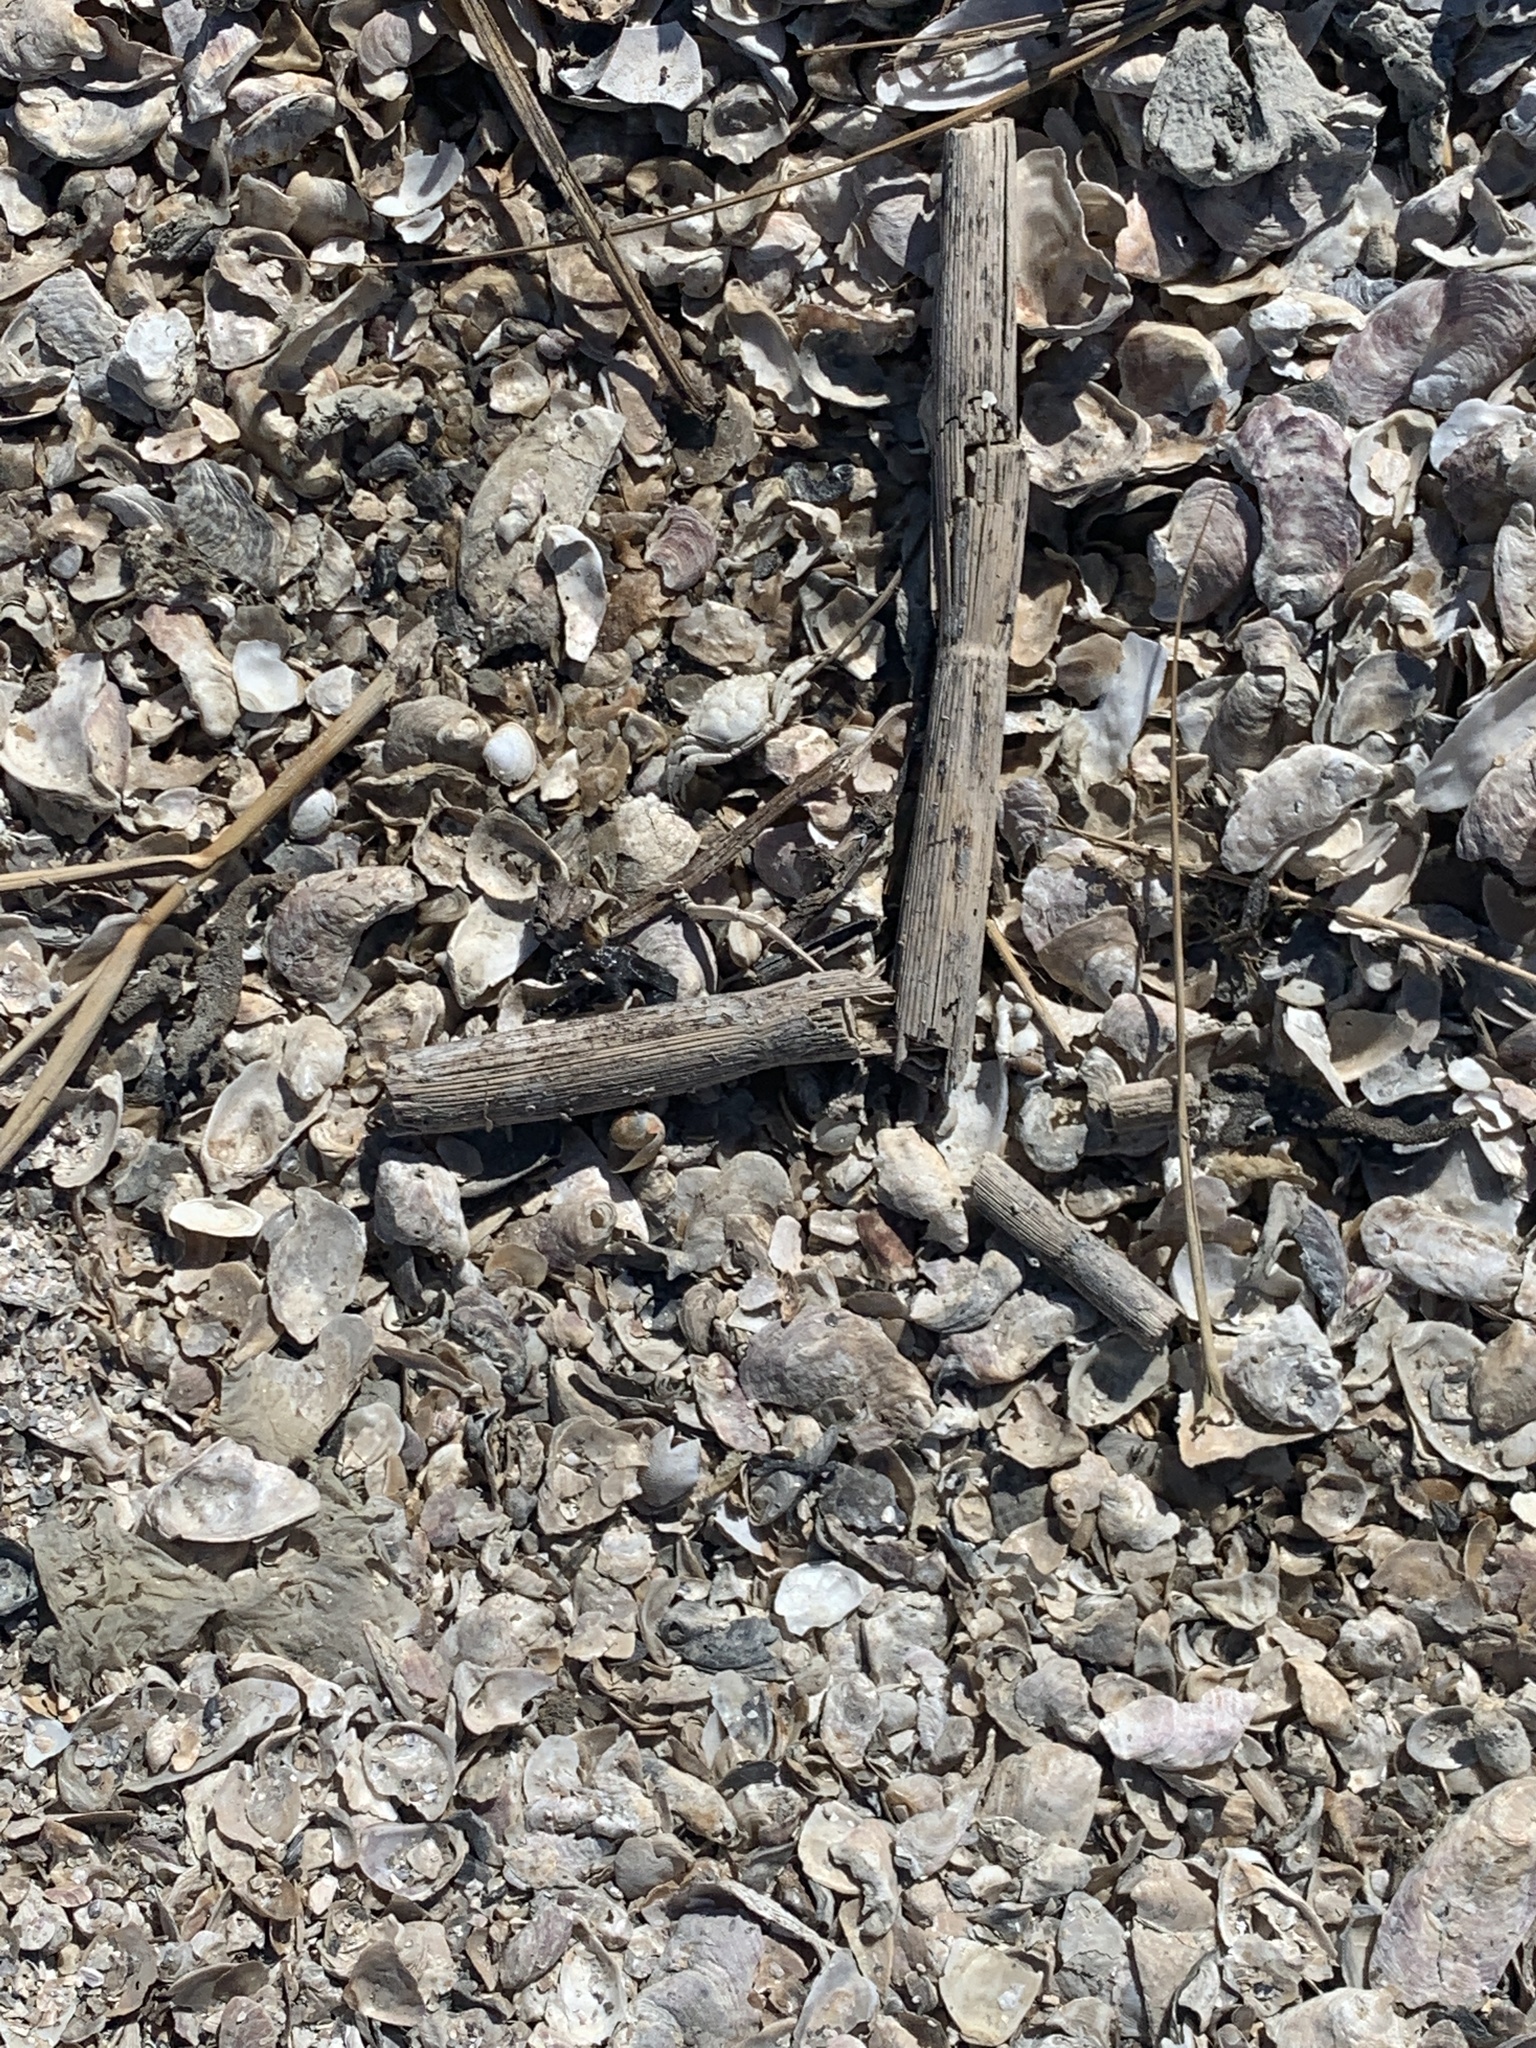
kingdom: Plantae
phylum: Tracheophyta
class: Magnoliopsida
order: Apiales
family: Apiaceae
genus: Foeniculum
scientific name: Foeniculum vulgare
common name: Fennel
